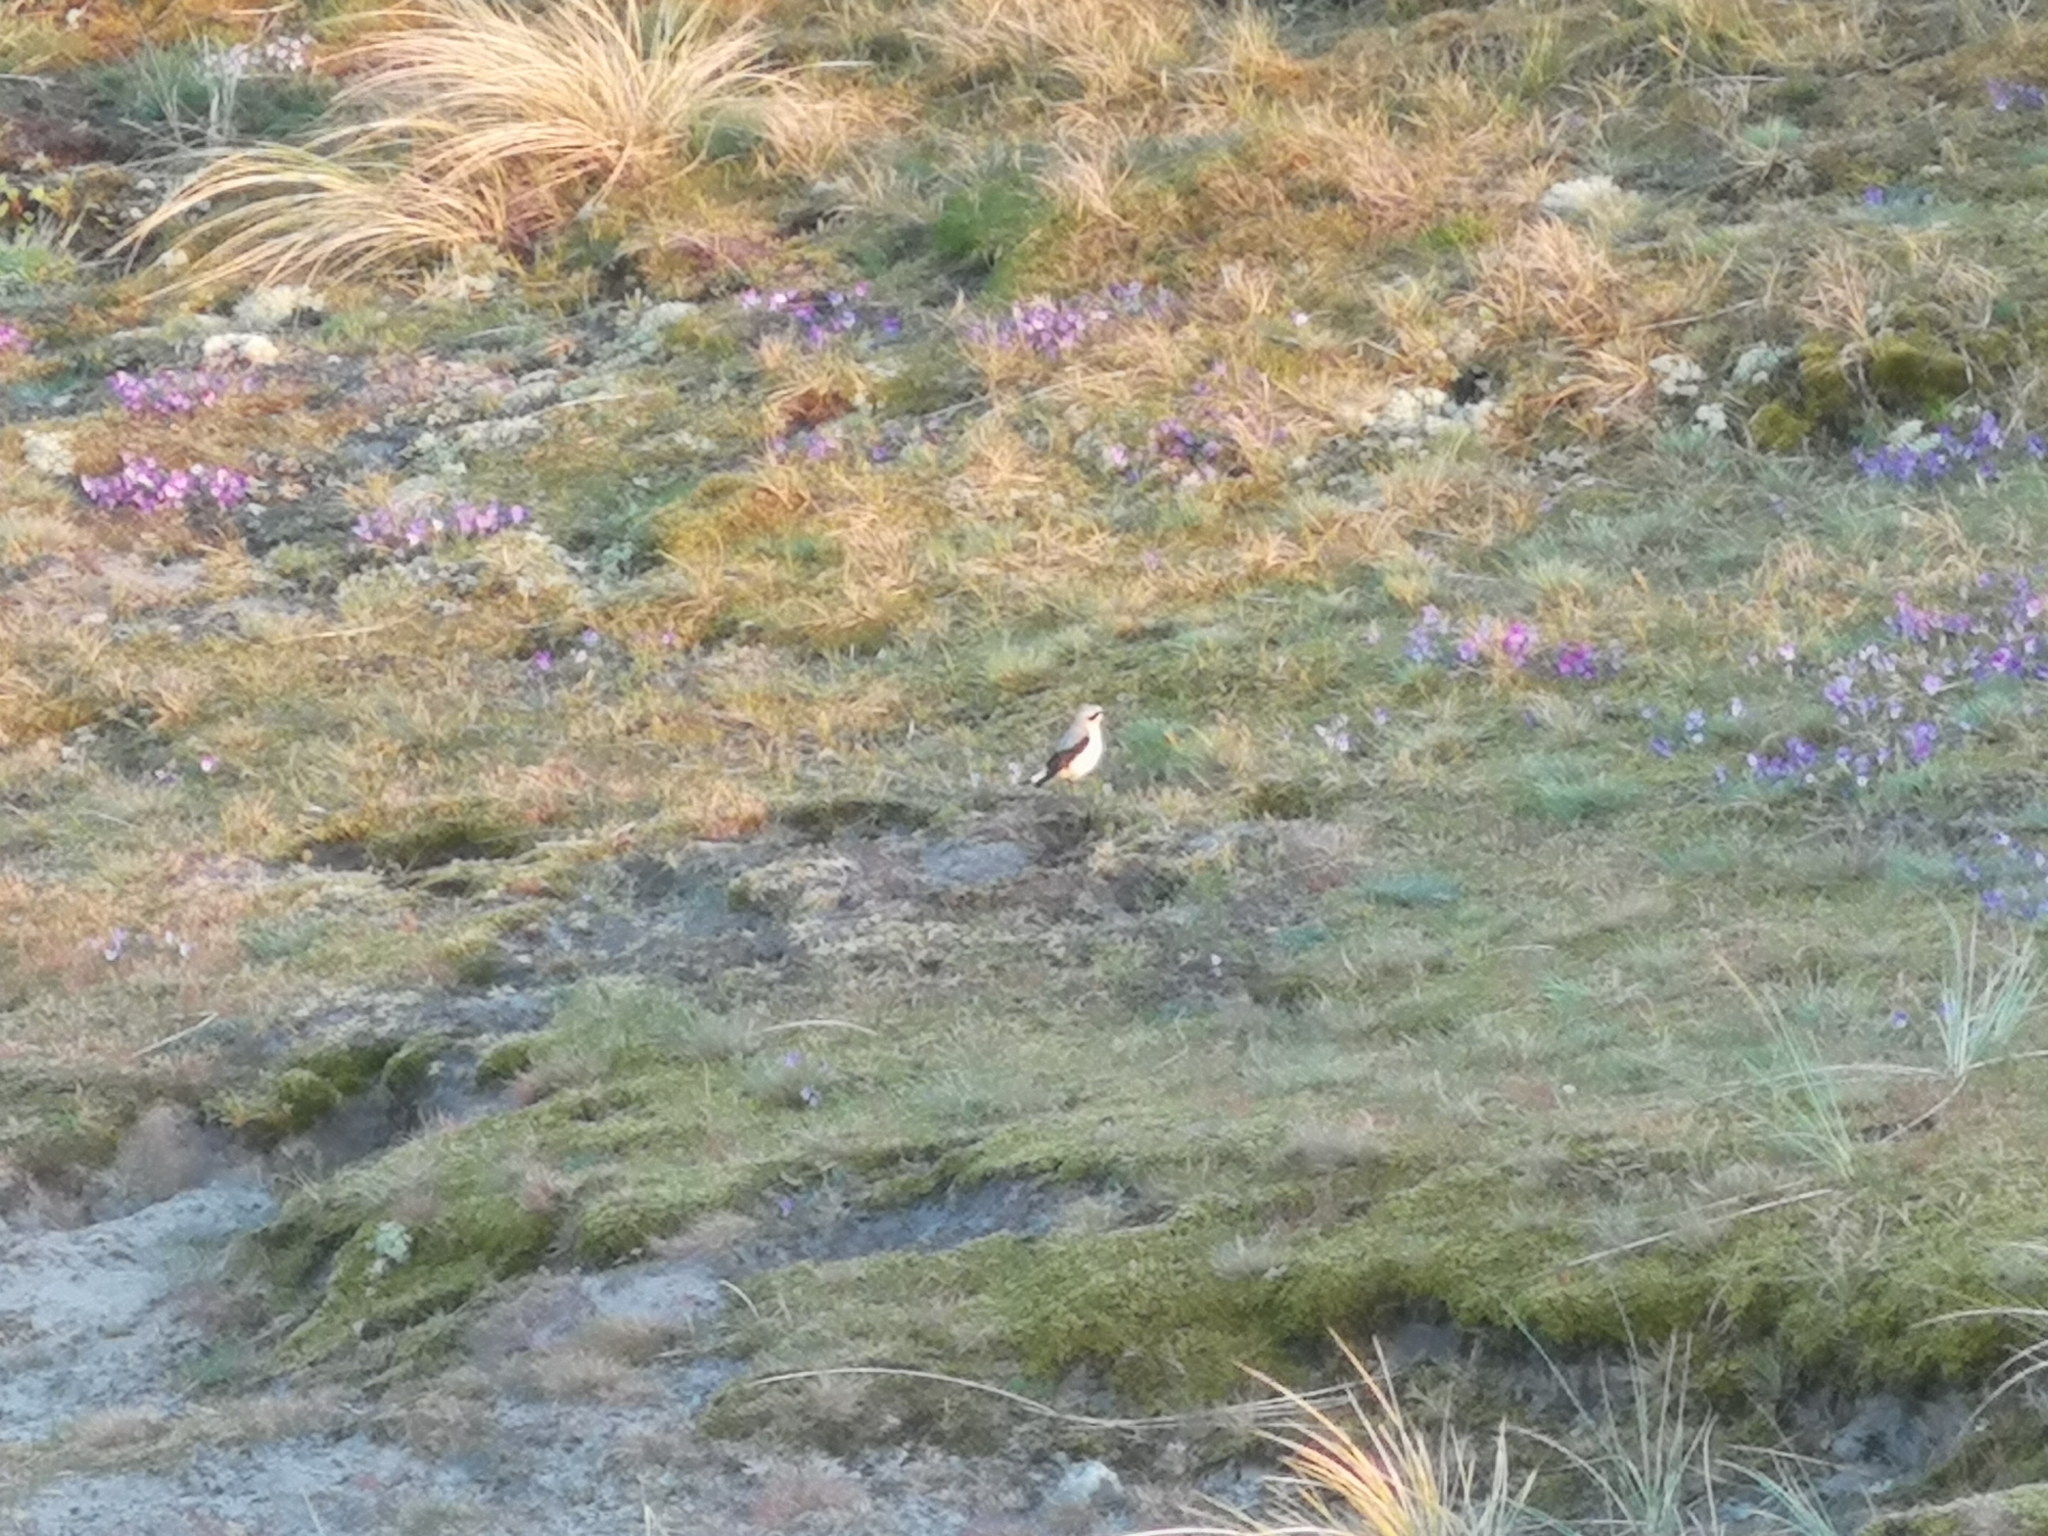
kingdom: Animalia
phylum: Chordata
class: Aves
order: Passeriformes
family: Muscicapidae
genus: Oenanthe
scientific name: Oenanthe oenanthe
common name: Northern wheatear
